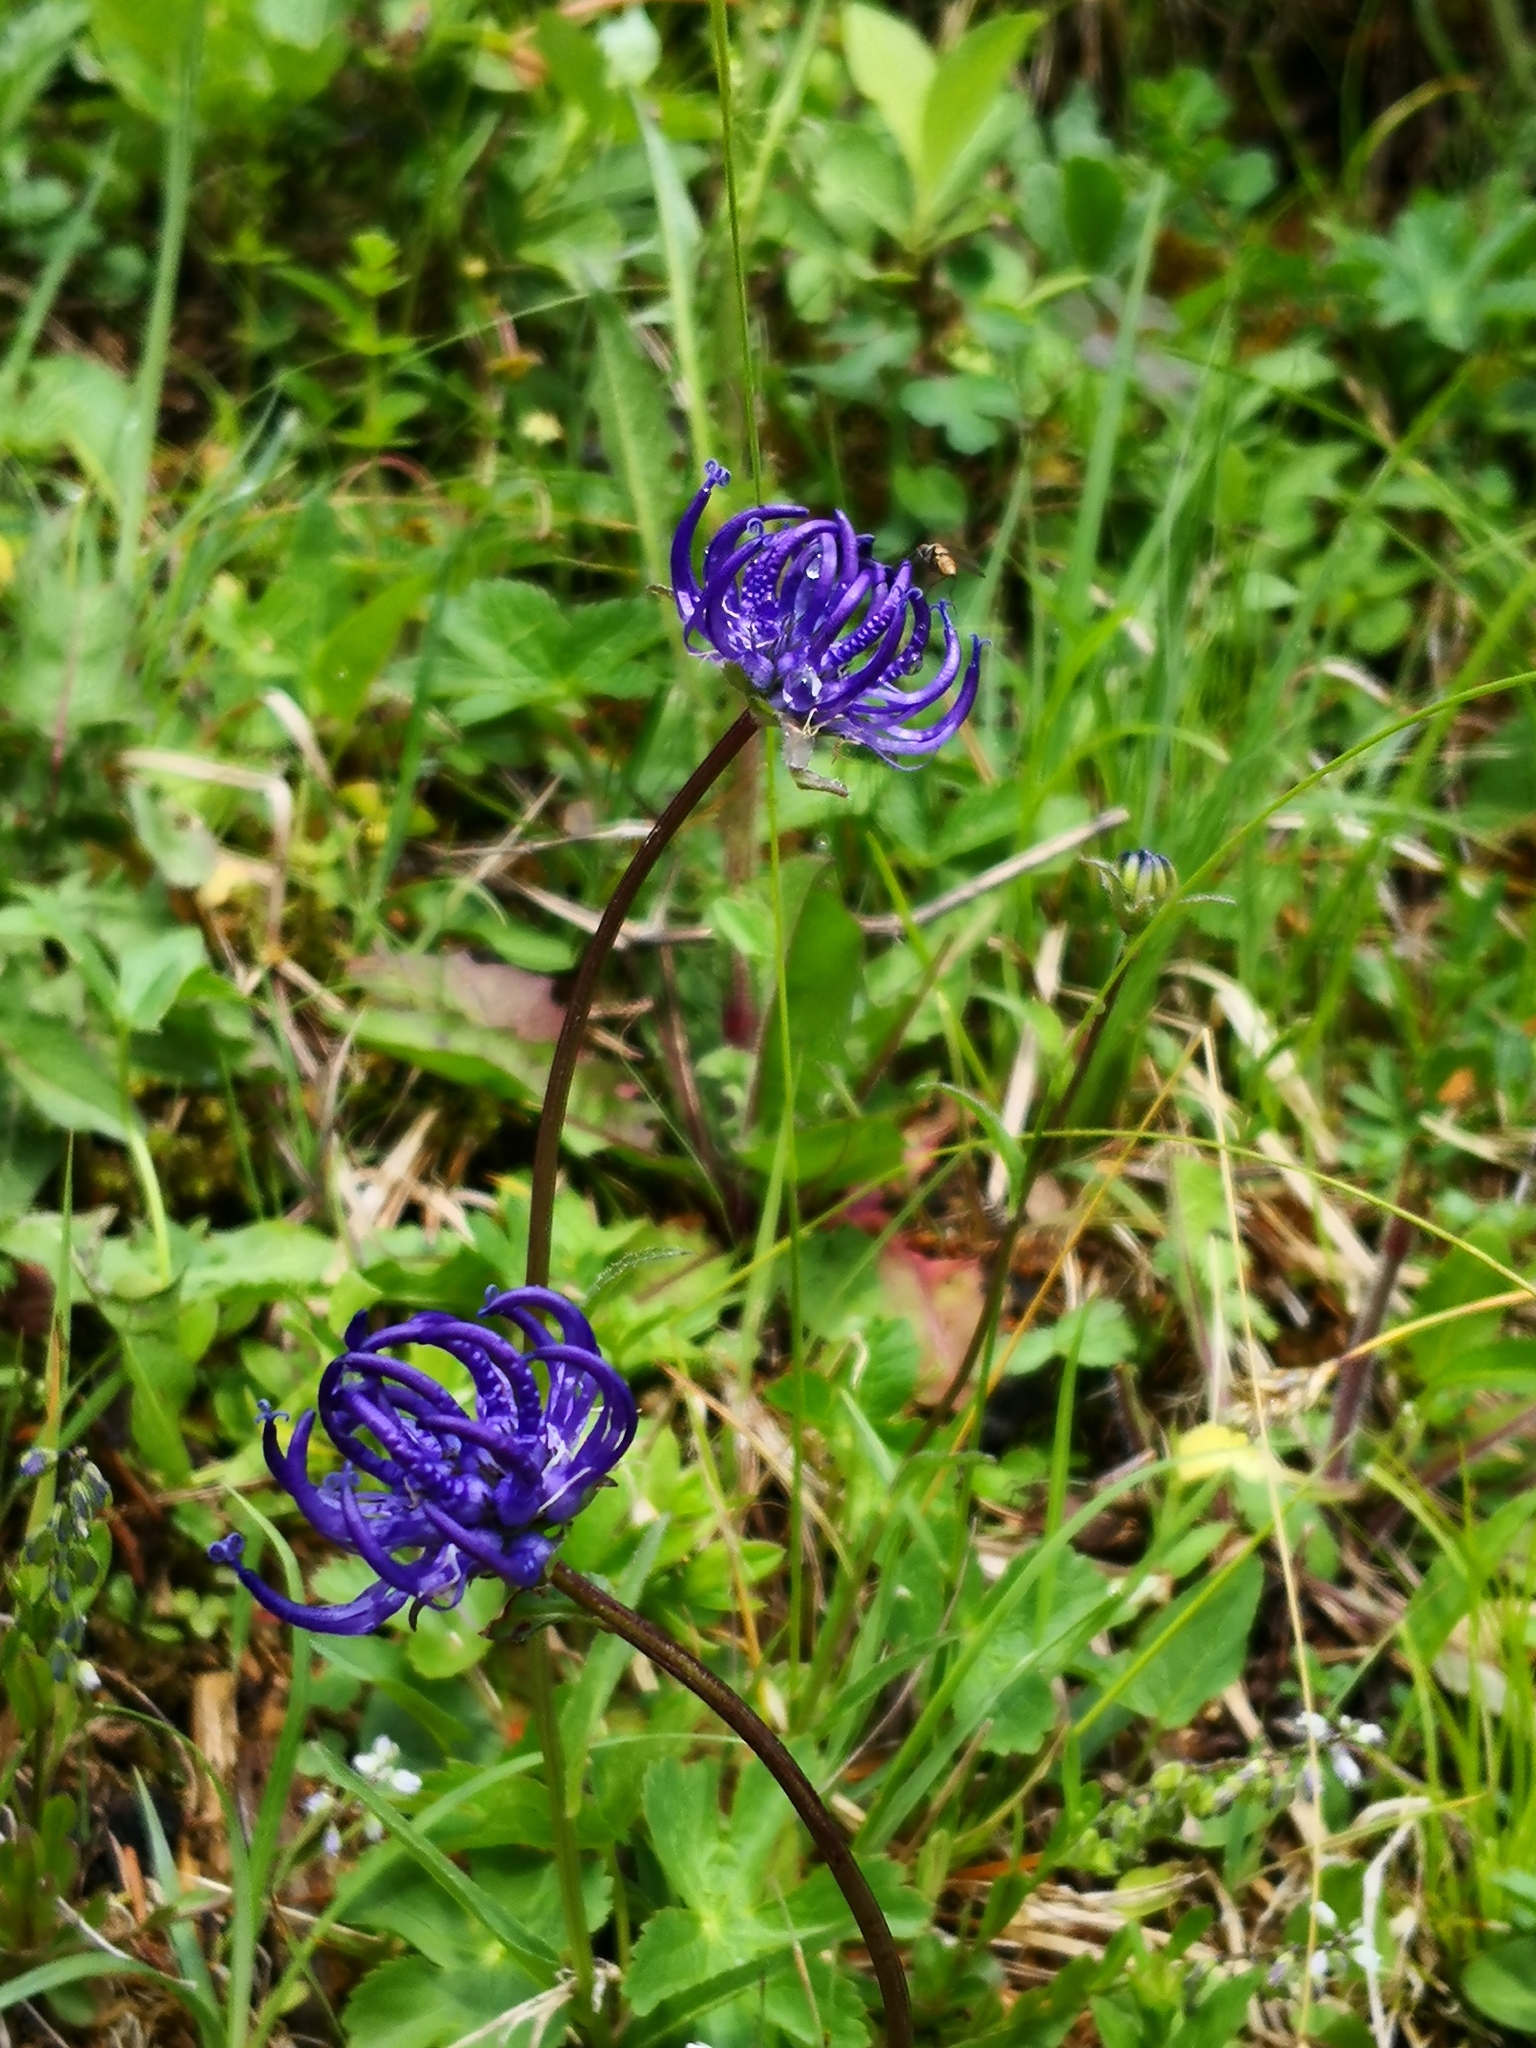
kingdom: Plantae
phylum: Tracheophyta
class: Magnoliopsida
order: Asterales
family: Campanulaceae
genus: Phyteuma
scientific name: Phyteuma orbiculare
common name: Round-headed rampion
